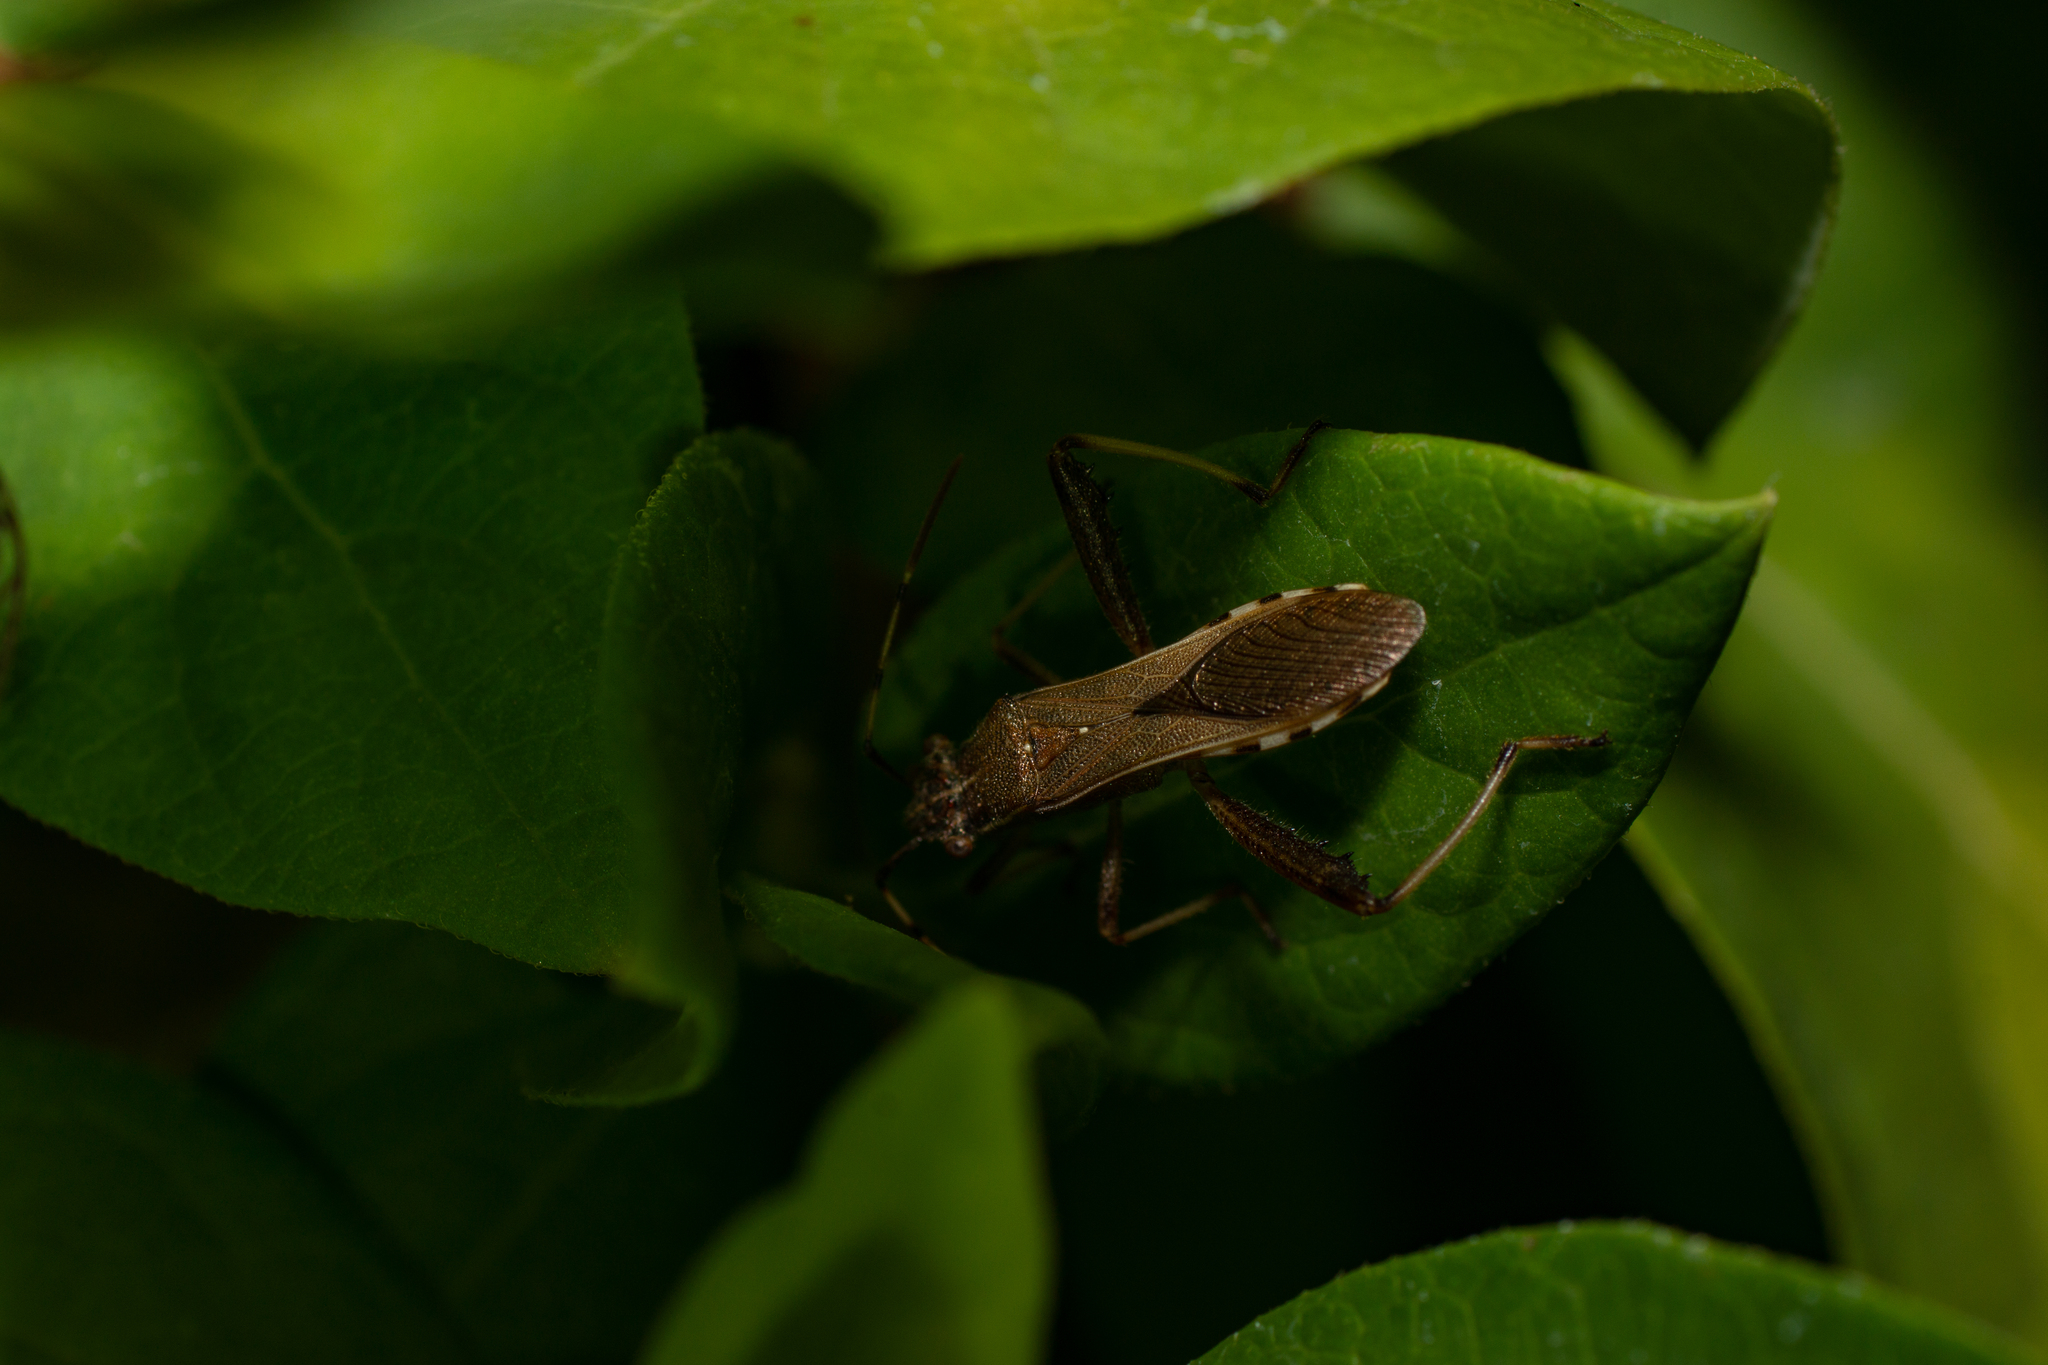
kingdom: Animalia
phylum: Arthropoda
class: Insecta
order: Hemiptera
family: Alydidae
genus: Camptopus
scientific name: Camptopus lateralis
